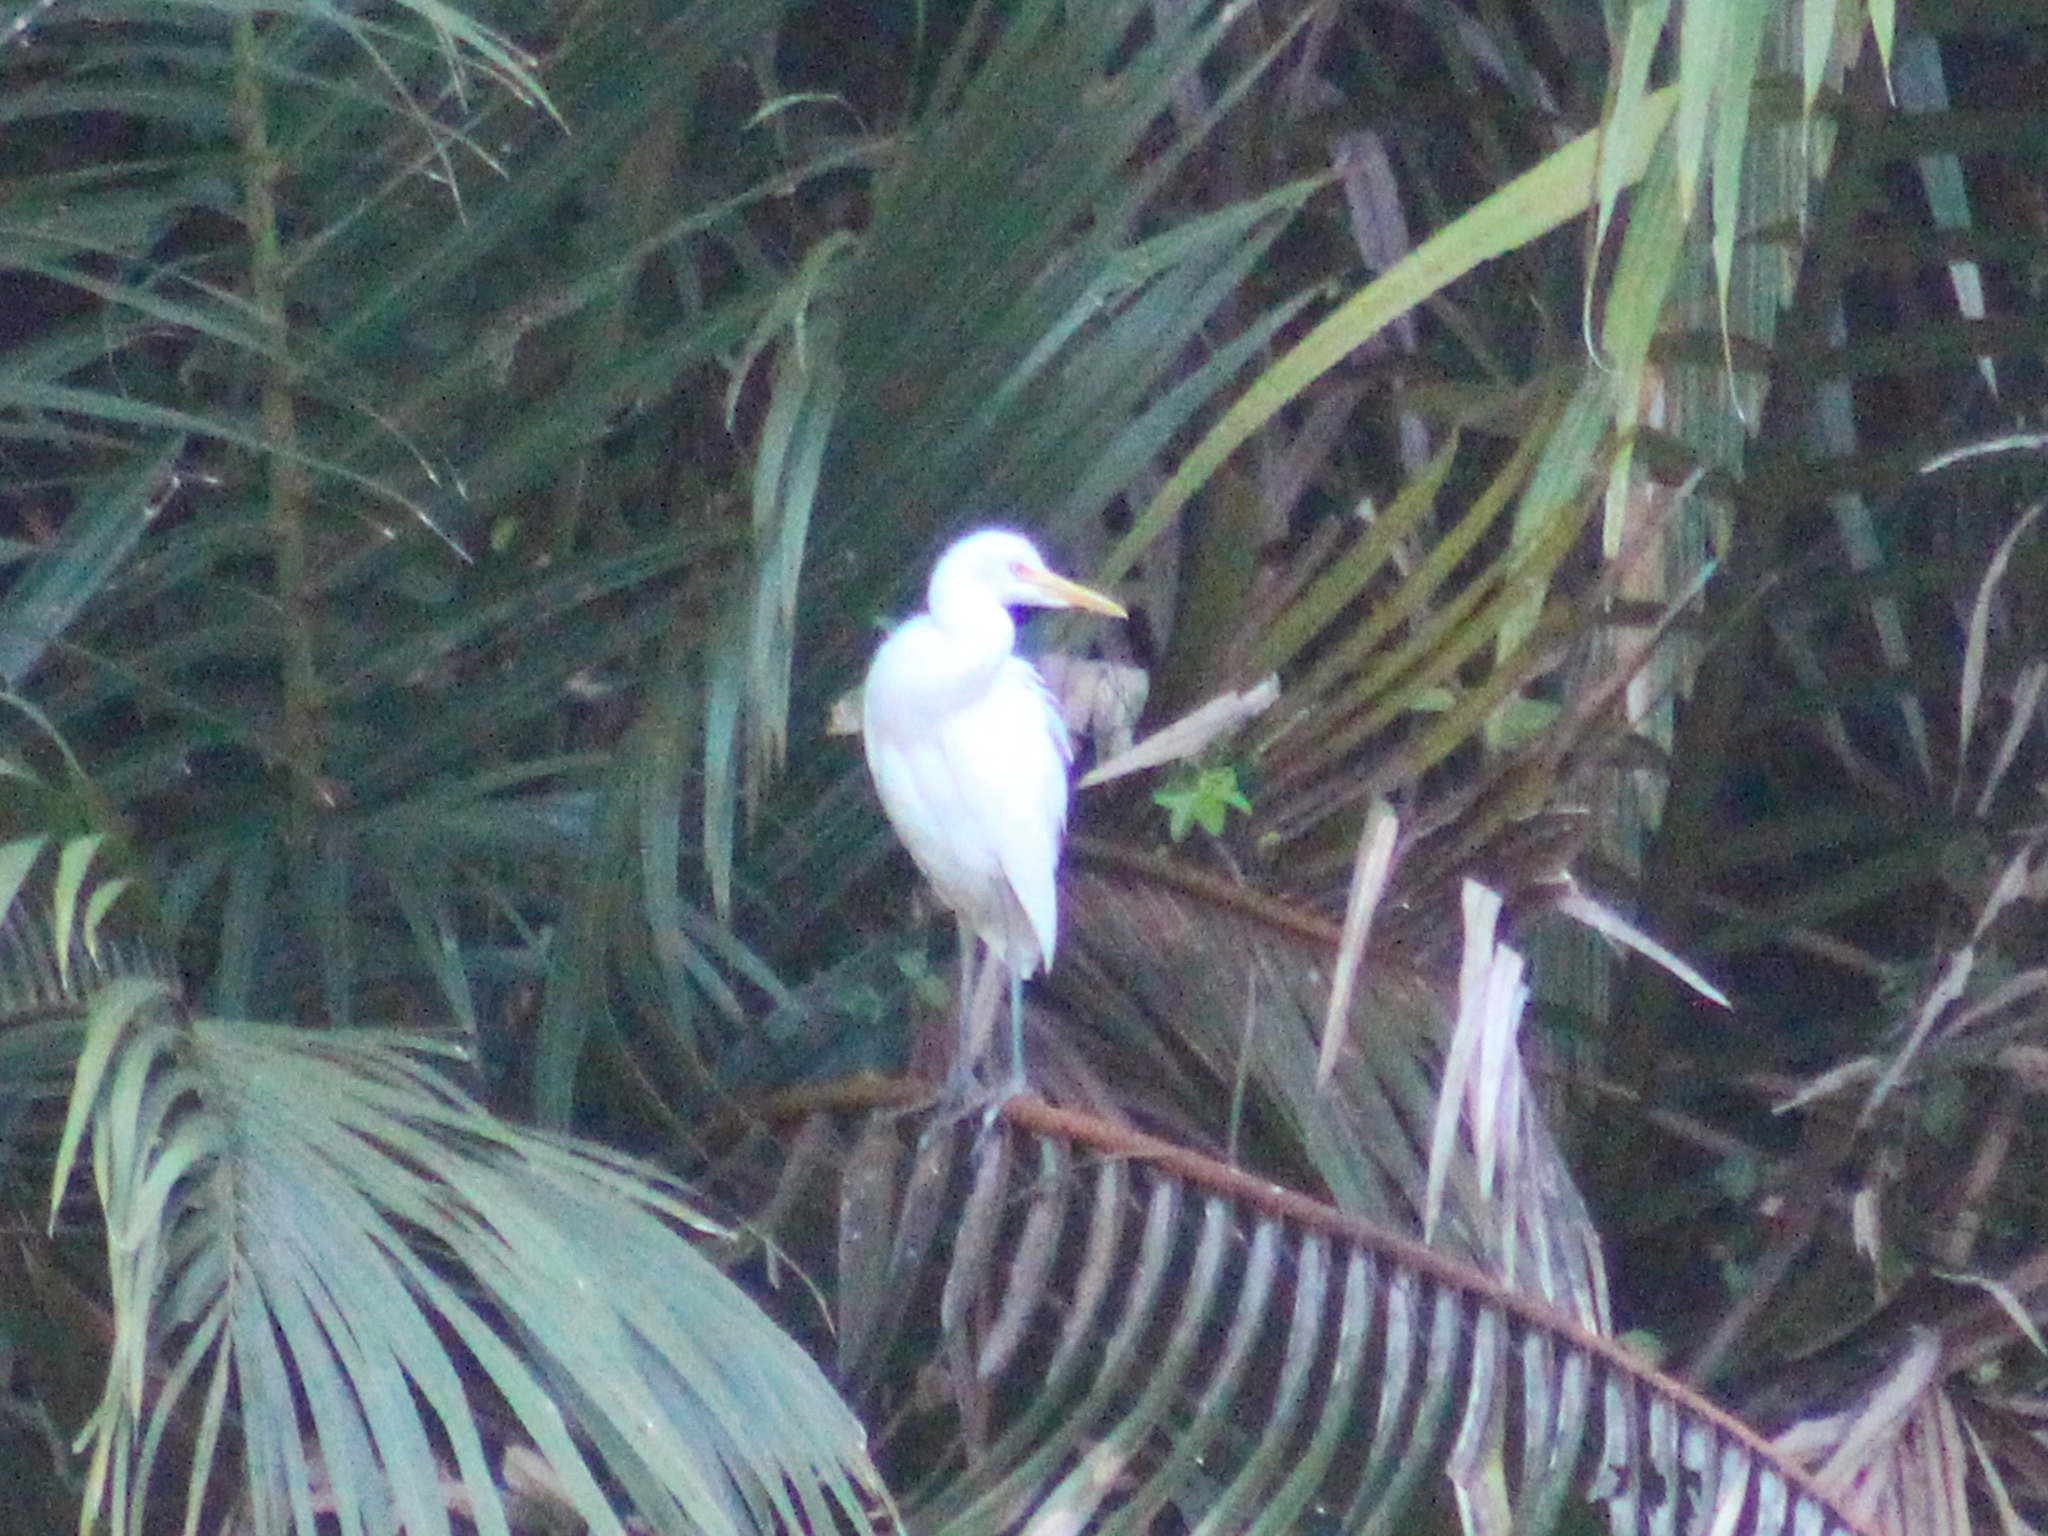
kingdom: Animalia
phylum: Chordata
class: Aves
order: Pelecaniformes
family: Ardeidae
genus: Bubulcus
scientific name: Bubulcus coromandus
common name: Eastern cattle egret
